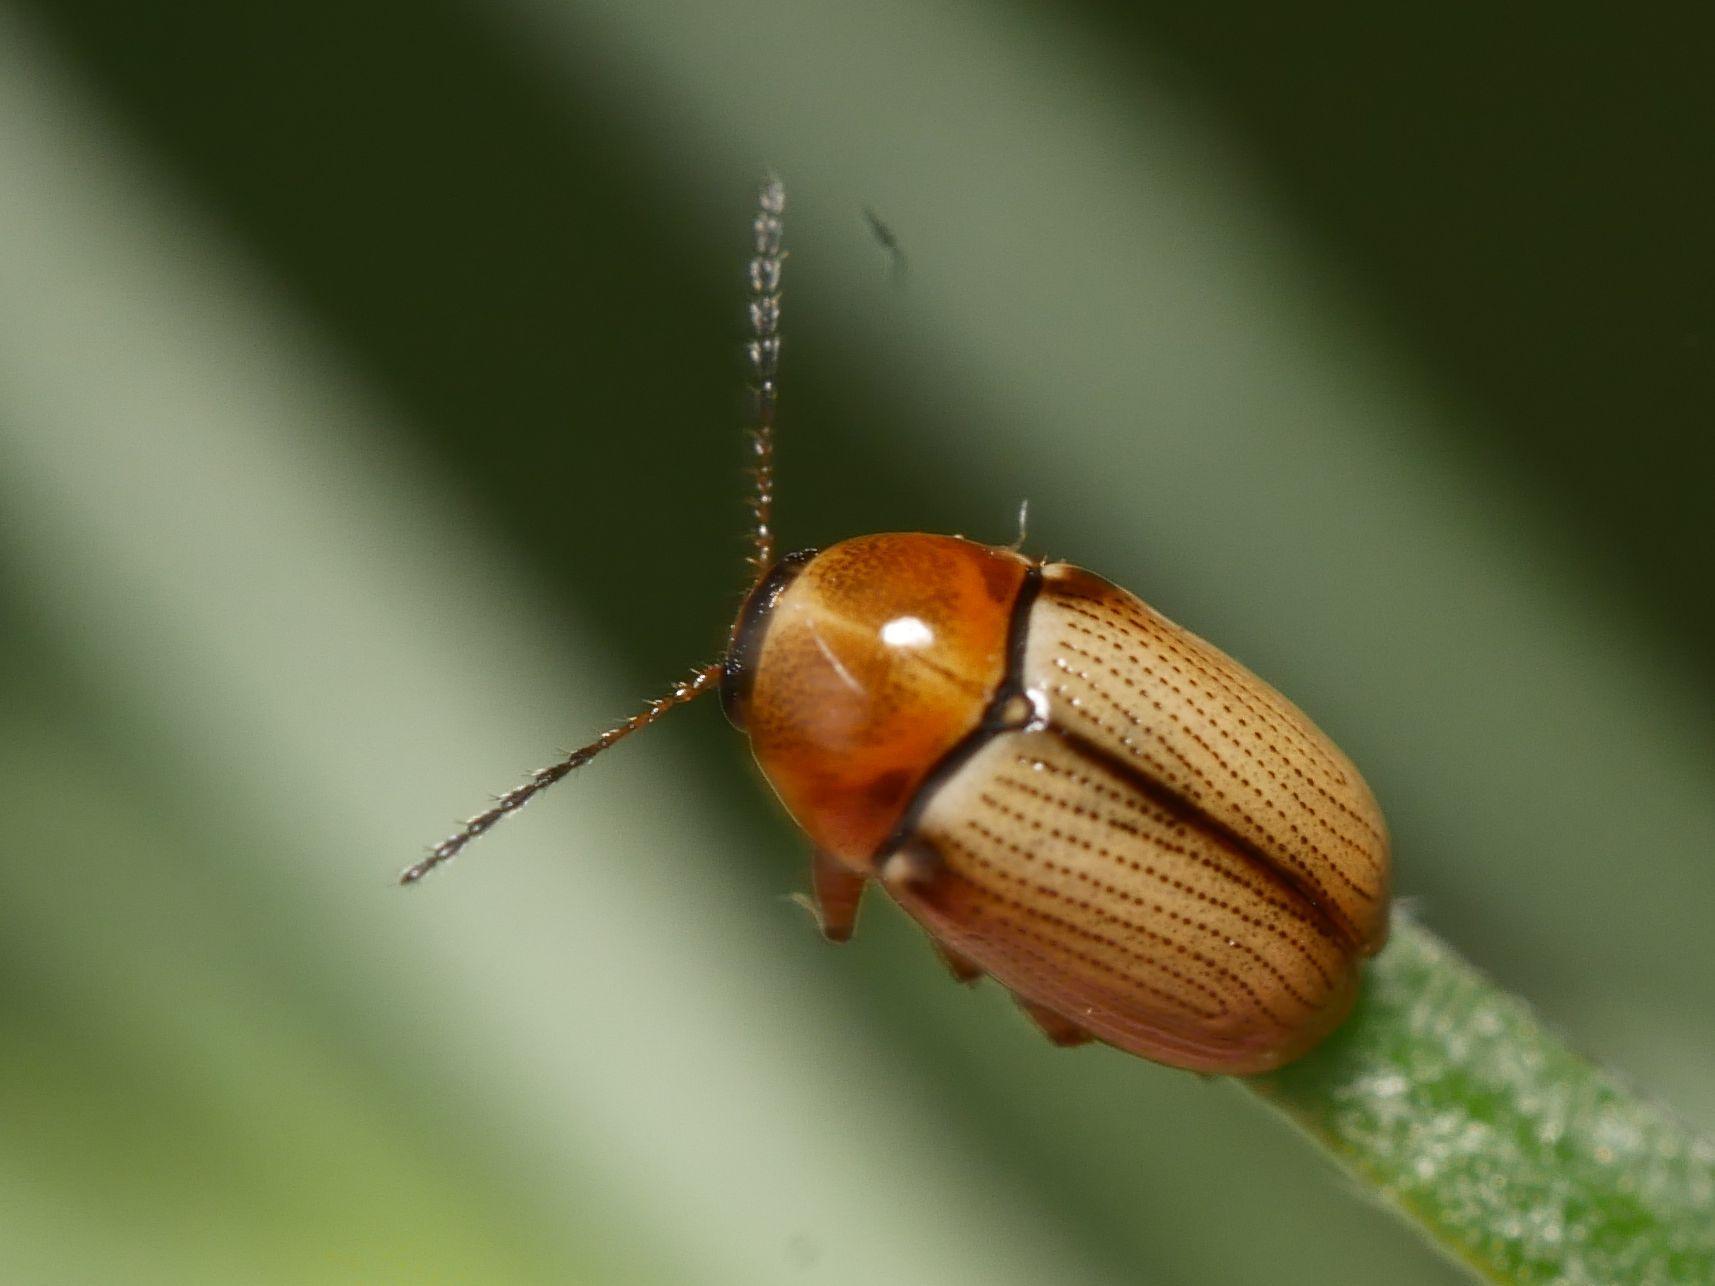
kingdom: Animalia
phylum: Arthropoda
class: Insecta
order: Coleoptera
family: Chrysomelidae
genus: Cryptocephalus
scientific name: Cryptocephalus fulvus
